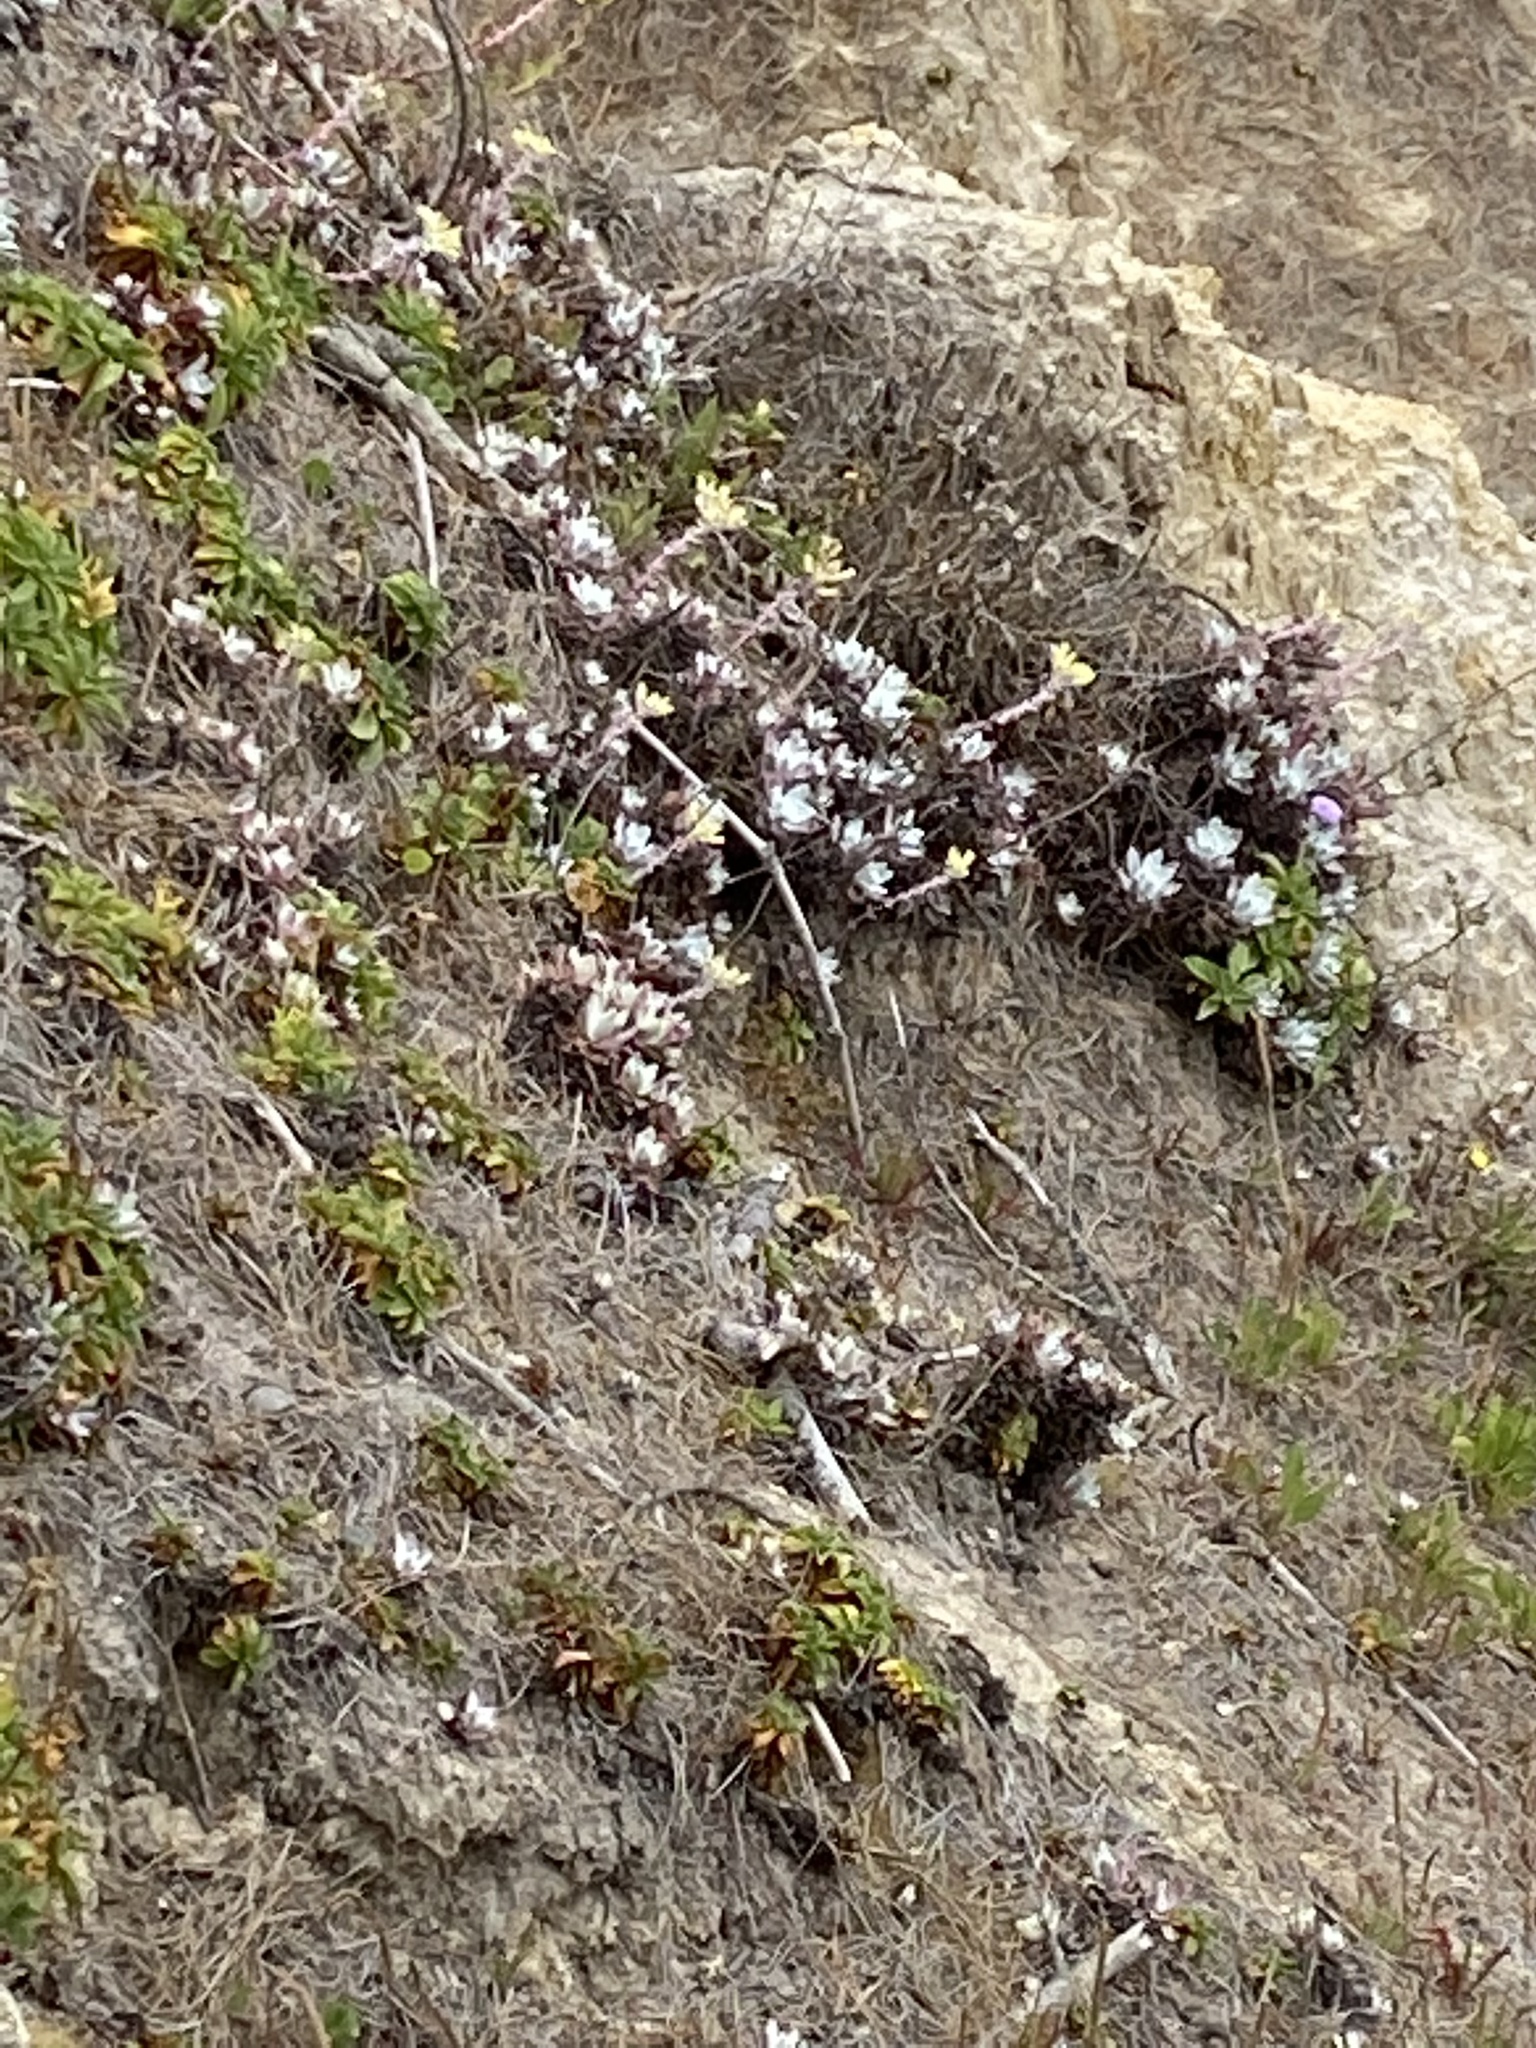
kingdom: Plantae
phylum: Tracheophyta
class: Magnoliopsida
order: Saxifragales
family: Crassulaceae
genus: Dudleya
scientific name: Dudleya farinosa
